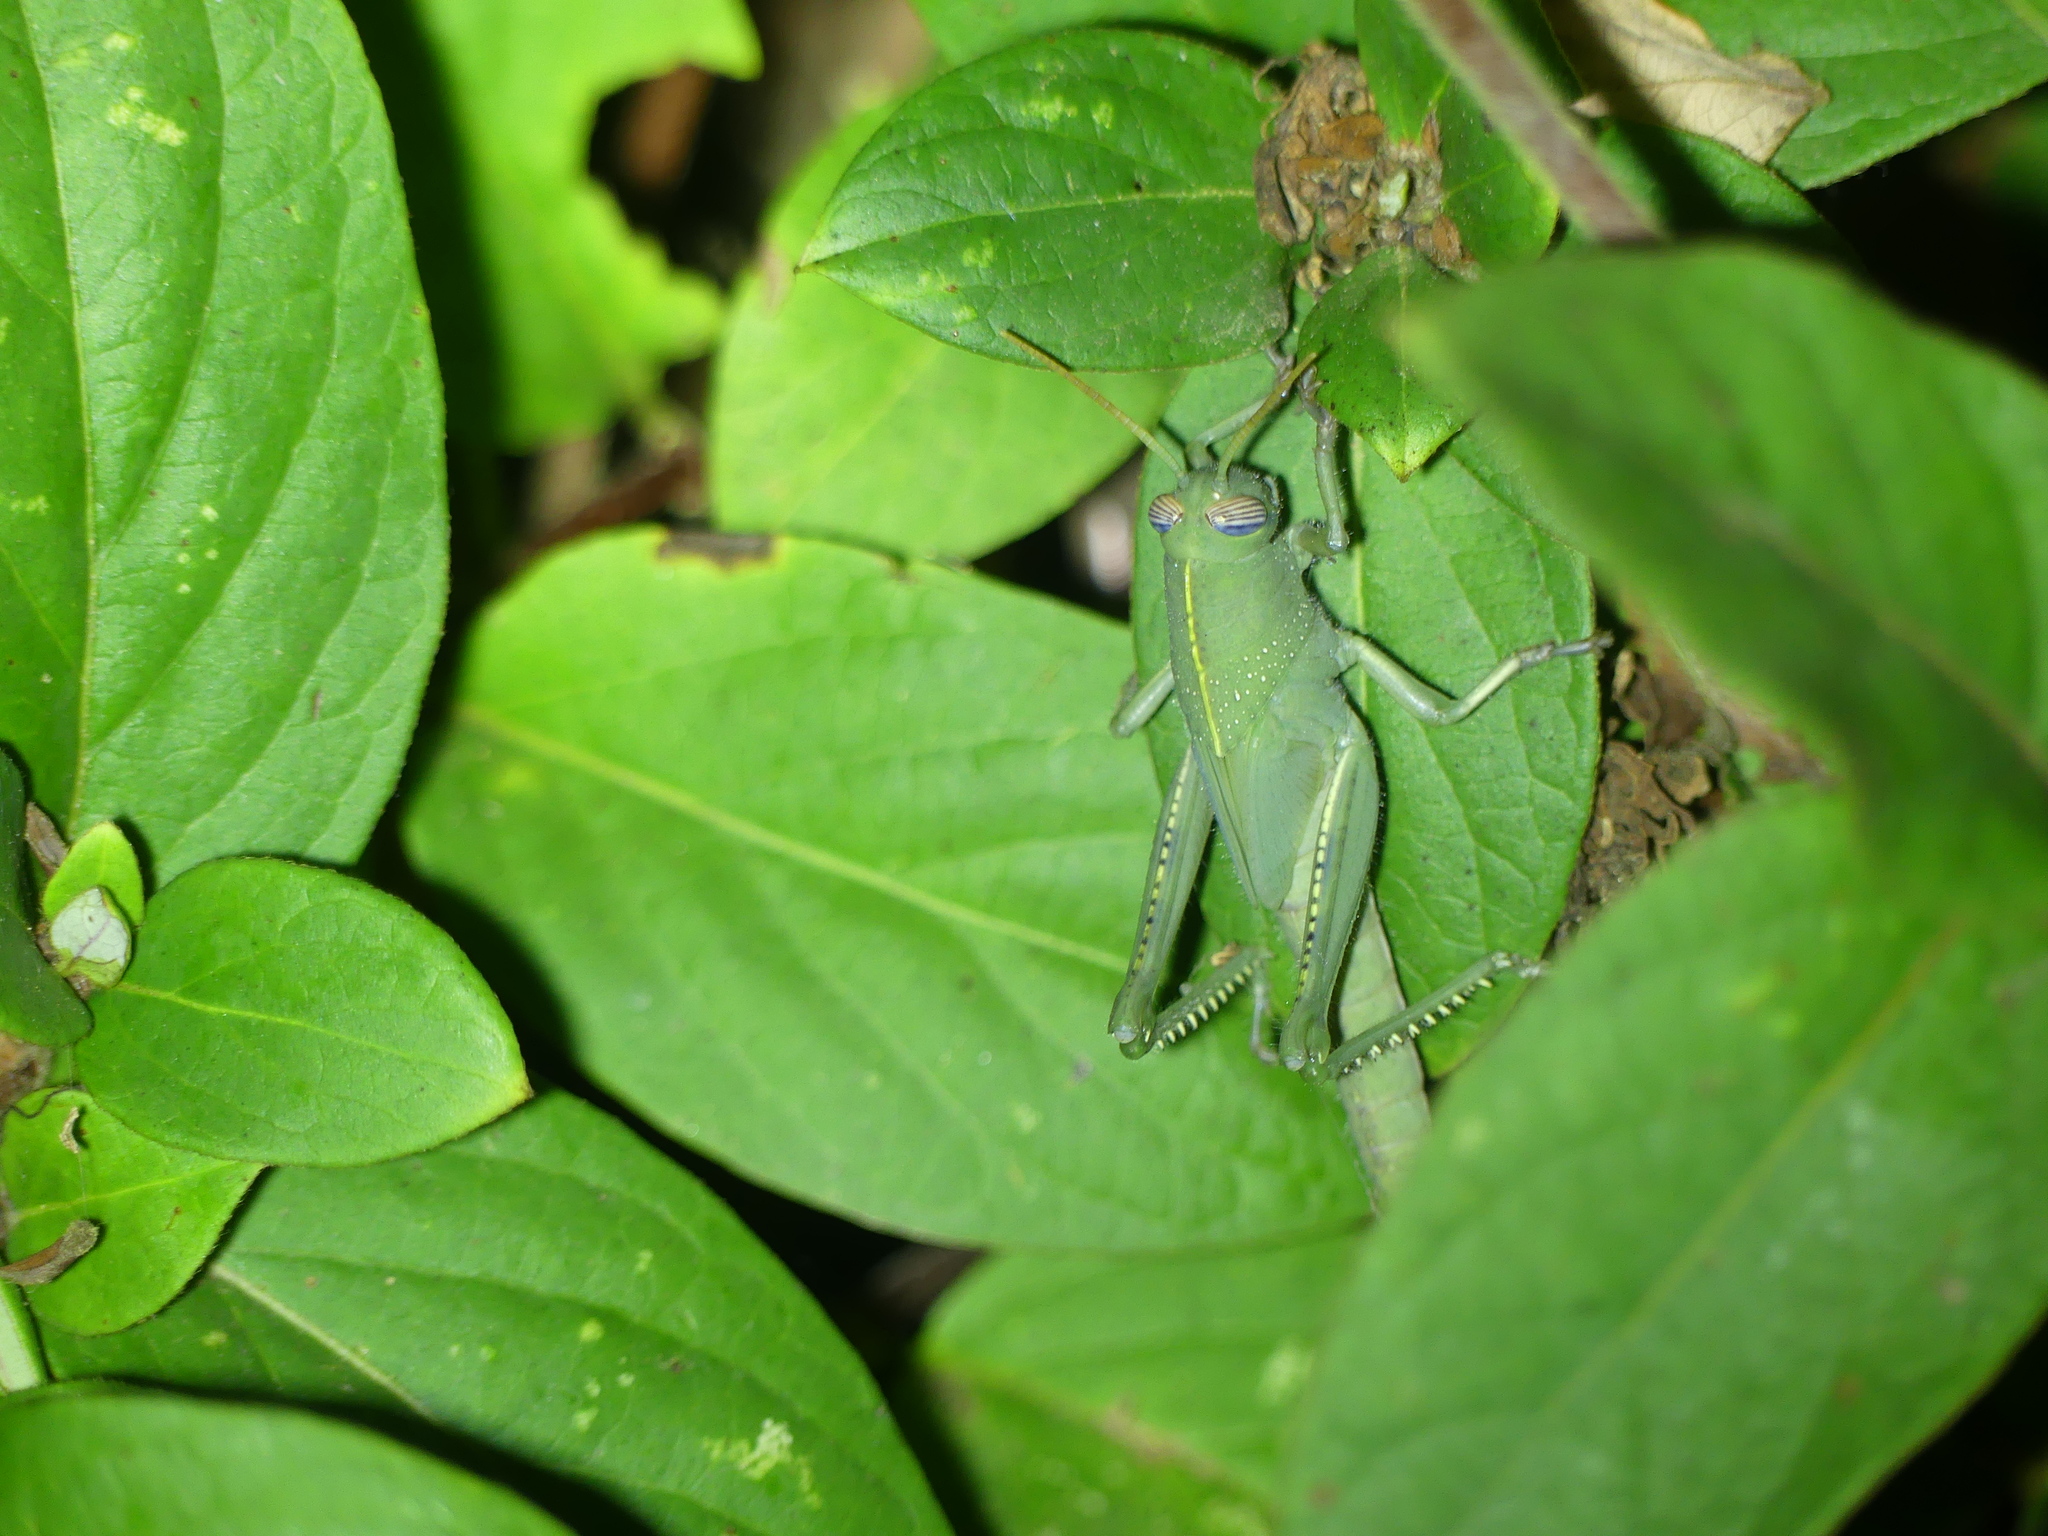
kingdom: Animalia
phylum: Arthropoda
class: Insecta
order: Orthoptera
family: Acrididae
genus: Anacridium
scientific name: Anacridium aegyptium
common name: Egyptian grasshopper
